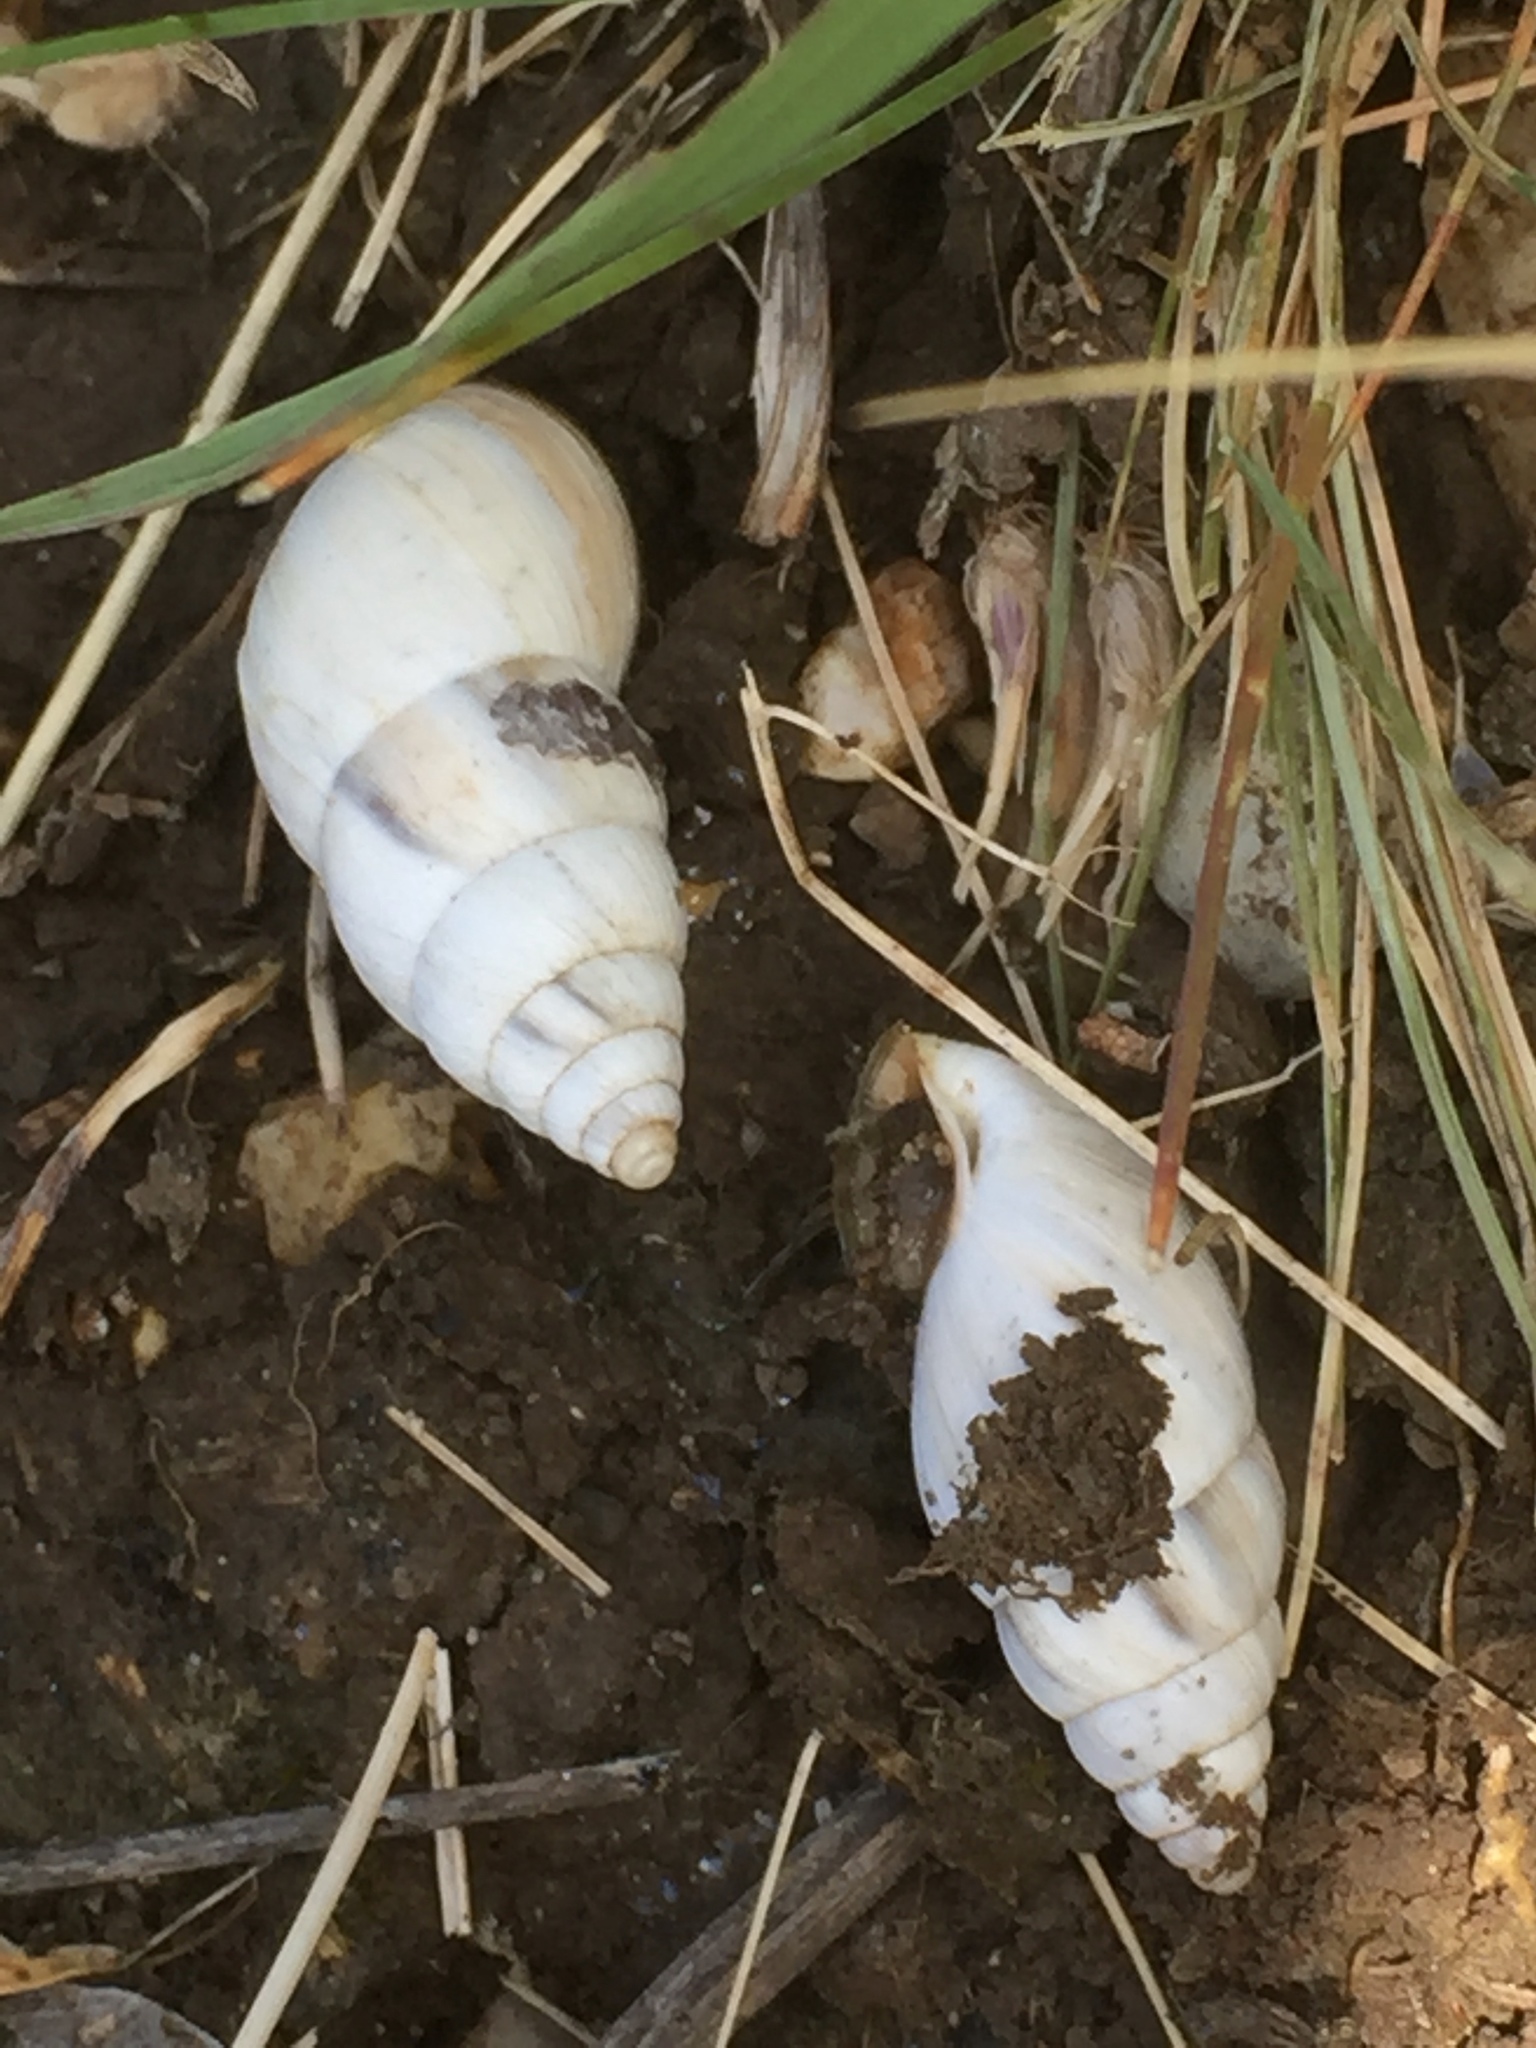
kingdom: Animalia
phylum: Mollusca
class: Gastropoda
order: Stylommatophora
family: Enidae
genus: Georginapaeus
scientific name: Georginapaeus hohenackeri
